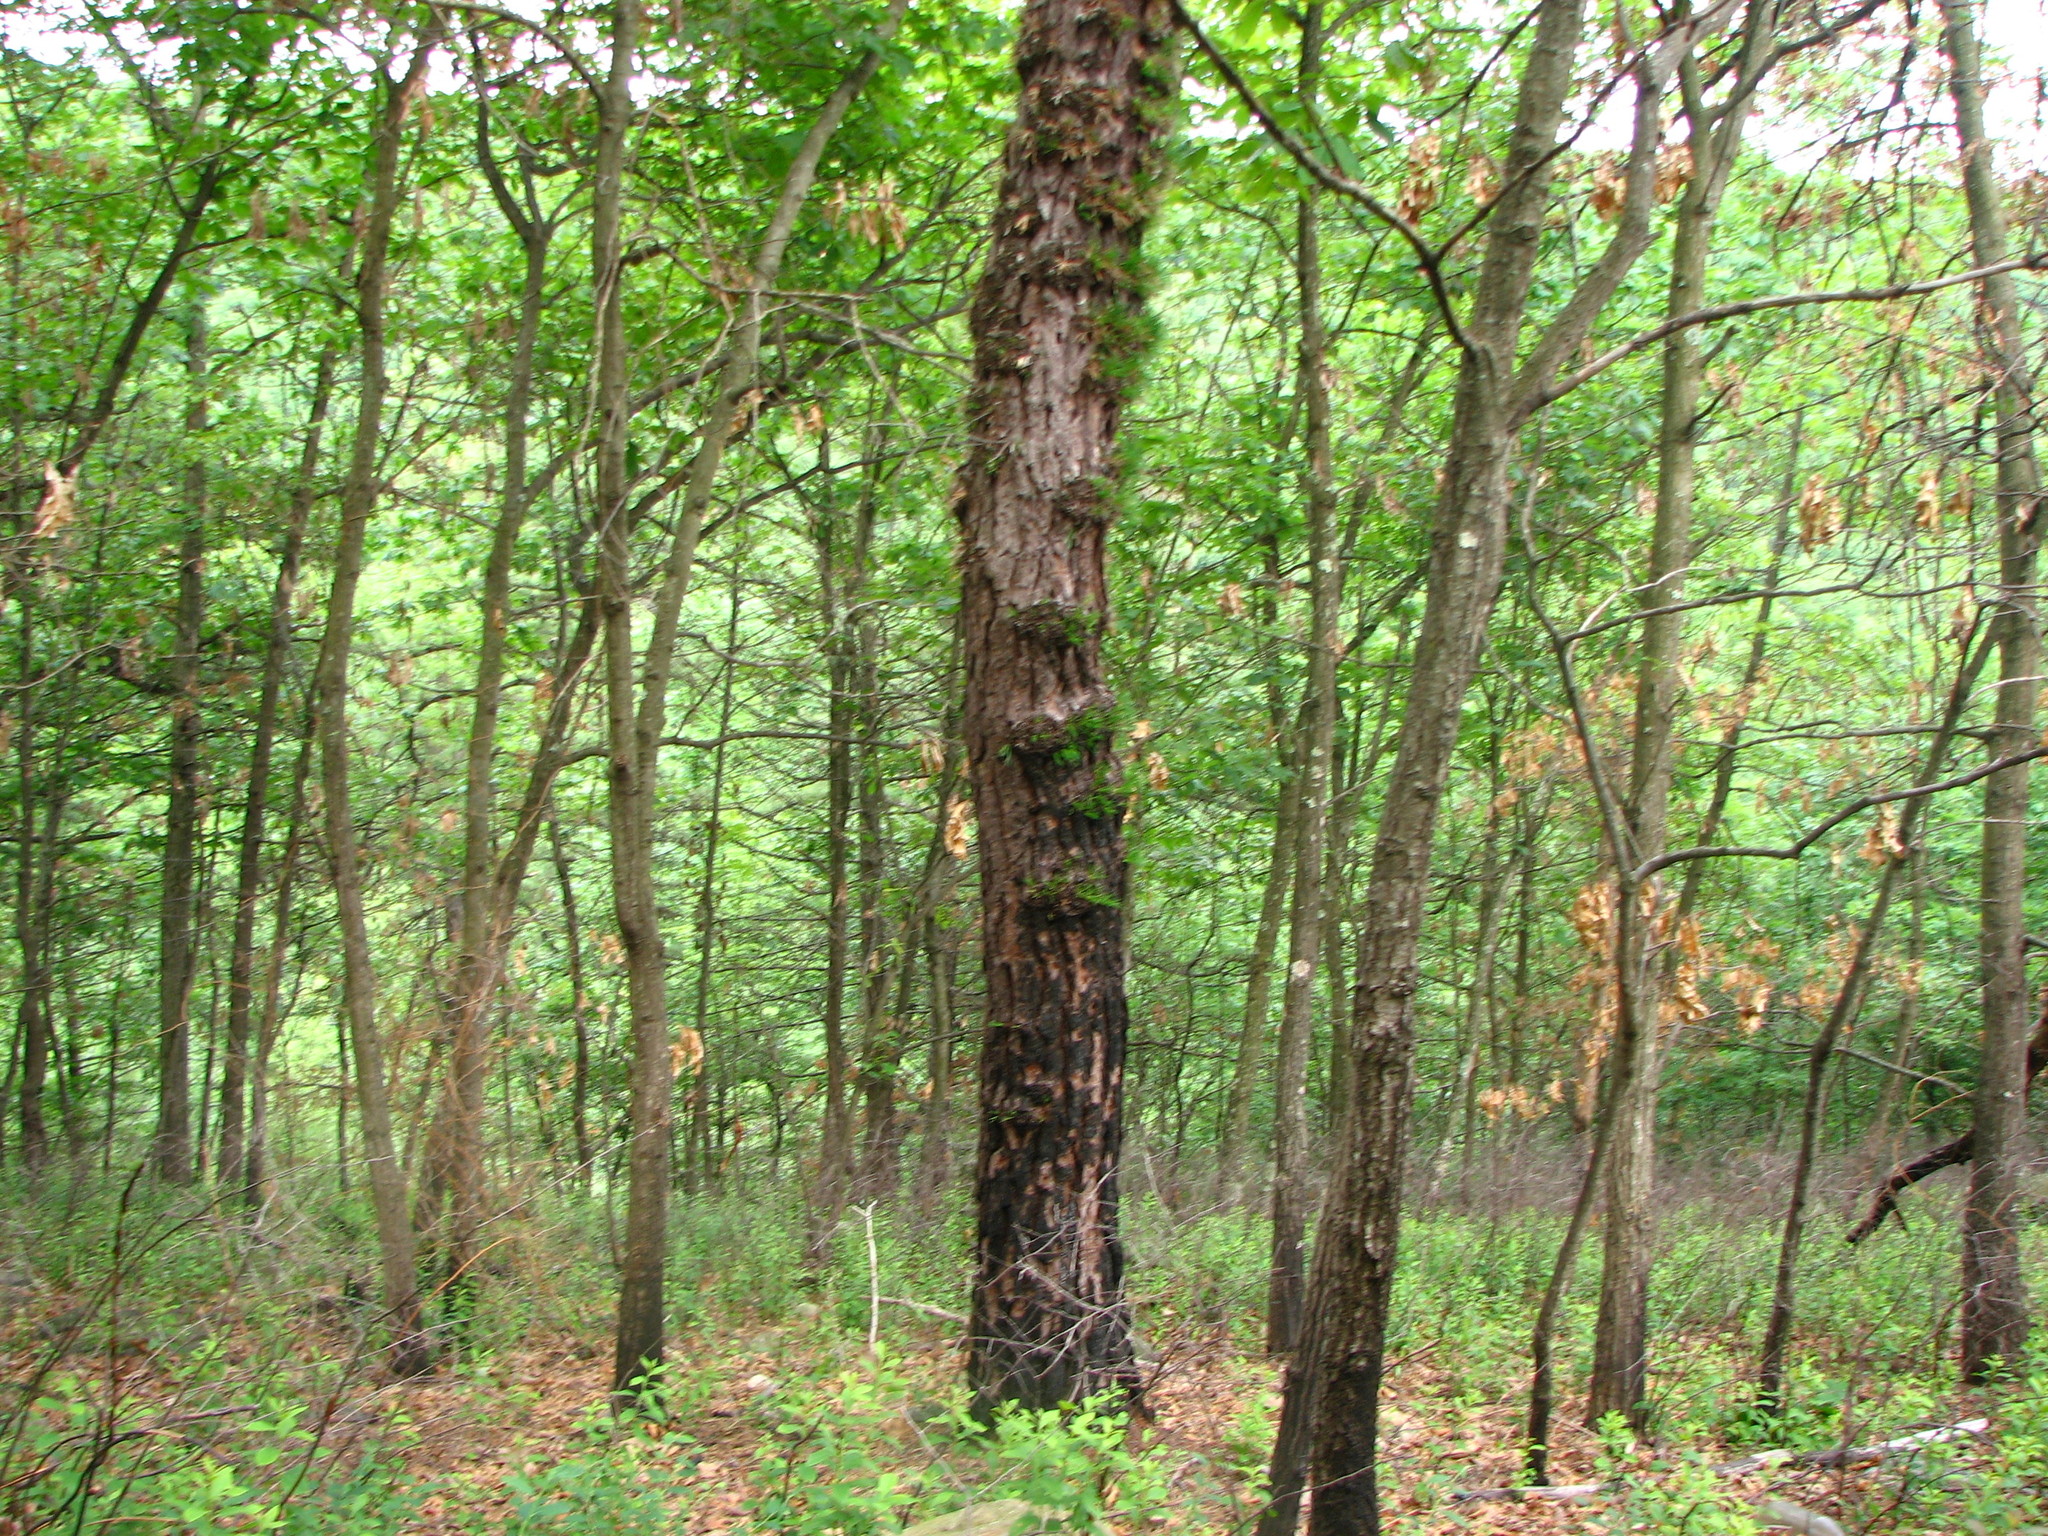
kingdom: Plantae
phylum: Tracheophyta
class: Pinopsida
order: Pinales
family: Pinaceae
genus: Pinus
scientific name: Pinus rigida
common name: Pitch pine
